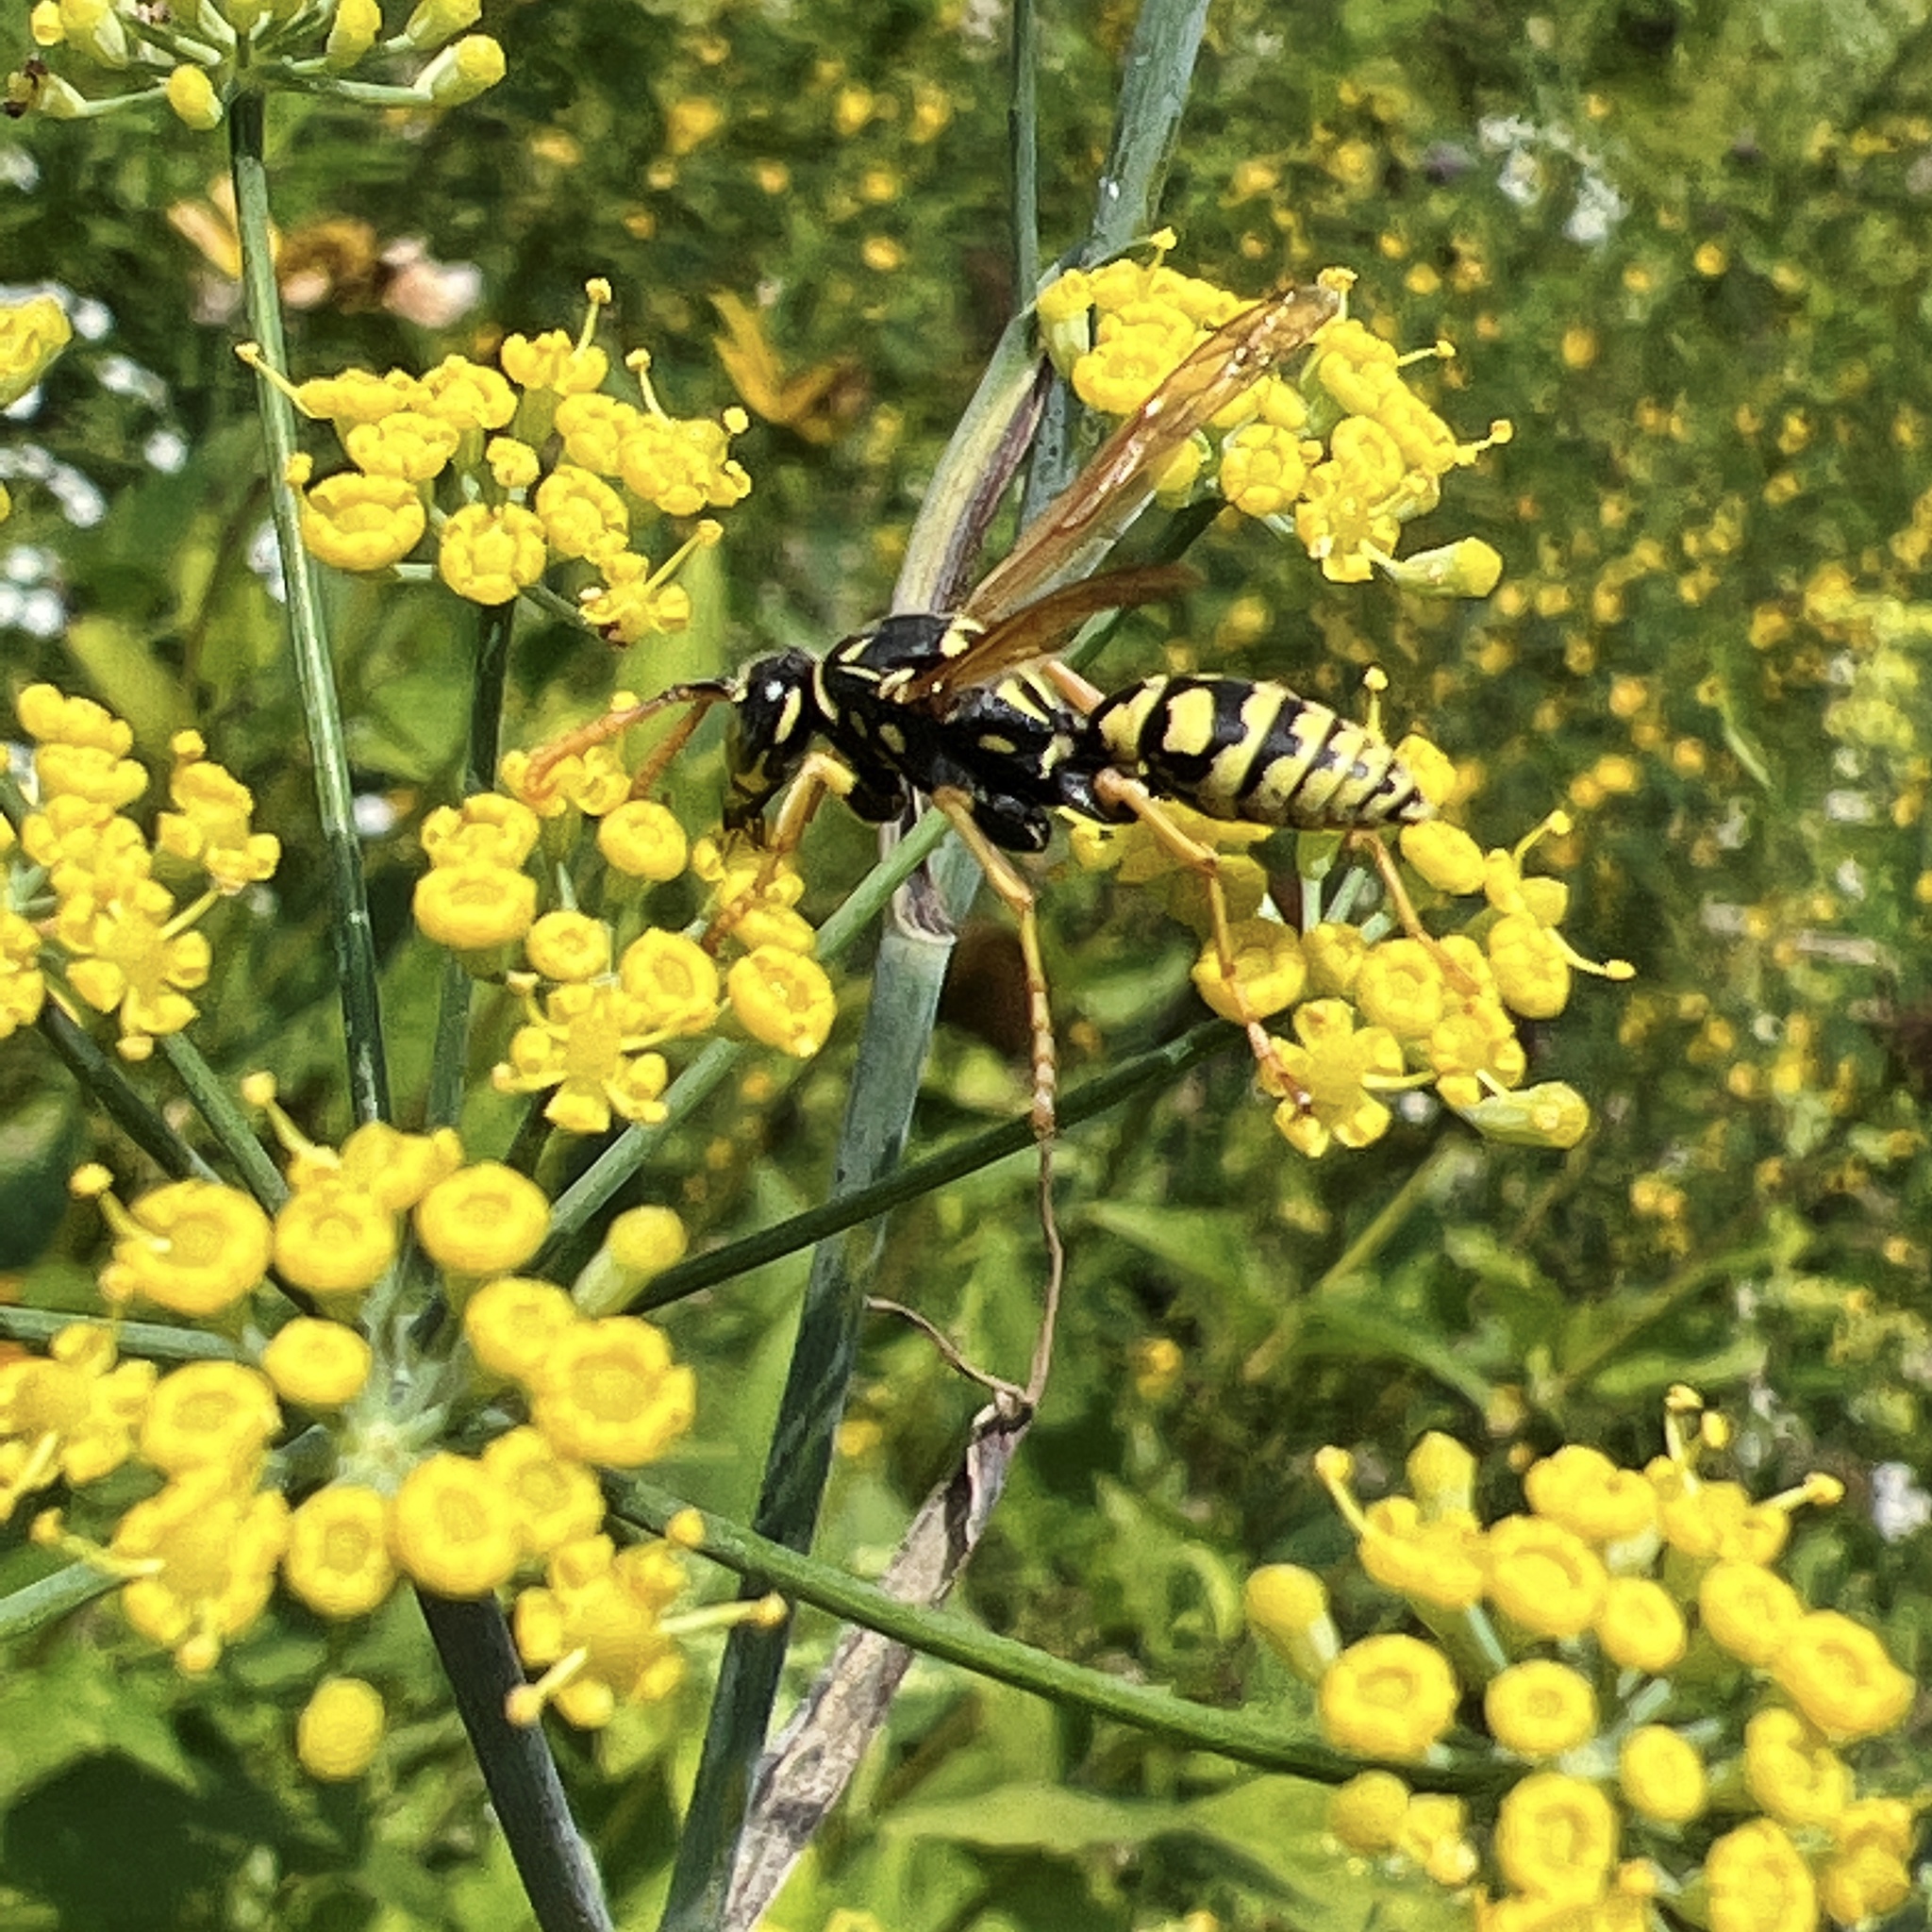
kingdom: Animalia
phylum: Arthropoda
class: Insecta
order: Hymenoptera
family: Eumenidae
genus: Polistes
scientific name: Polistes dominula
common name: Paper wasp
